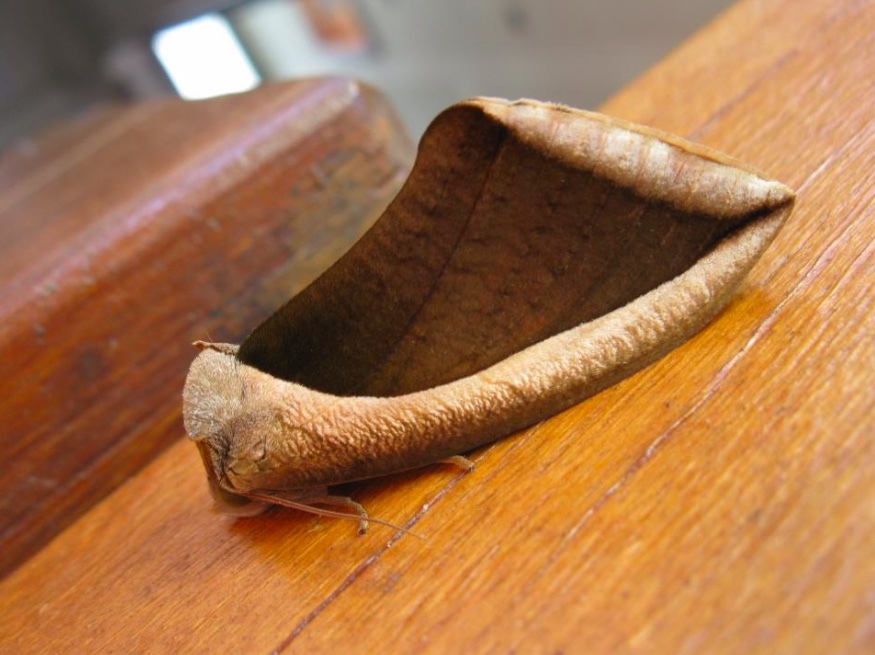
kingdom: Animalia
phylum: Arthropoda
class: Insecta
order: Lepidoptera
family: Erebidae
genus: Eudocima
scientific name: Eudocima salaminia
